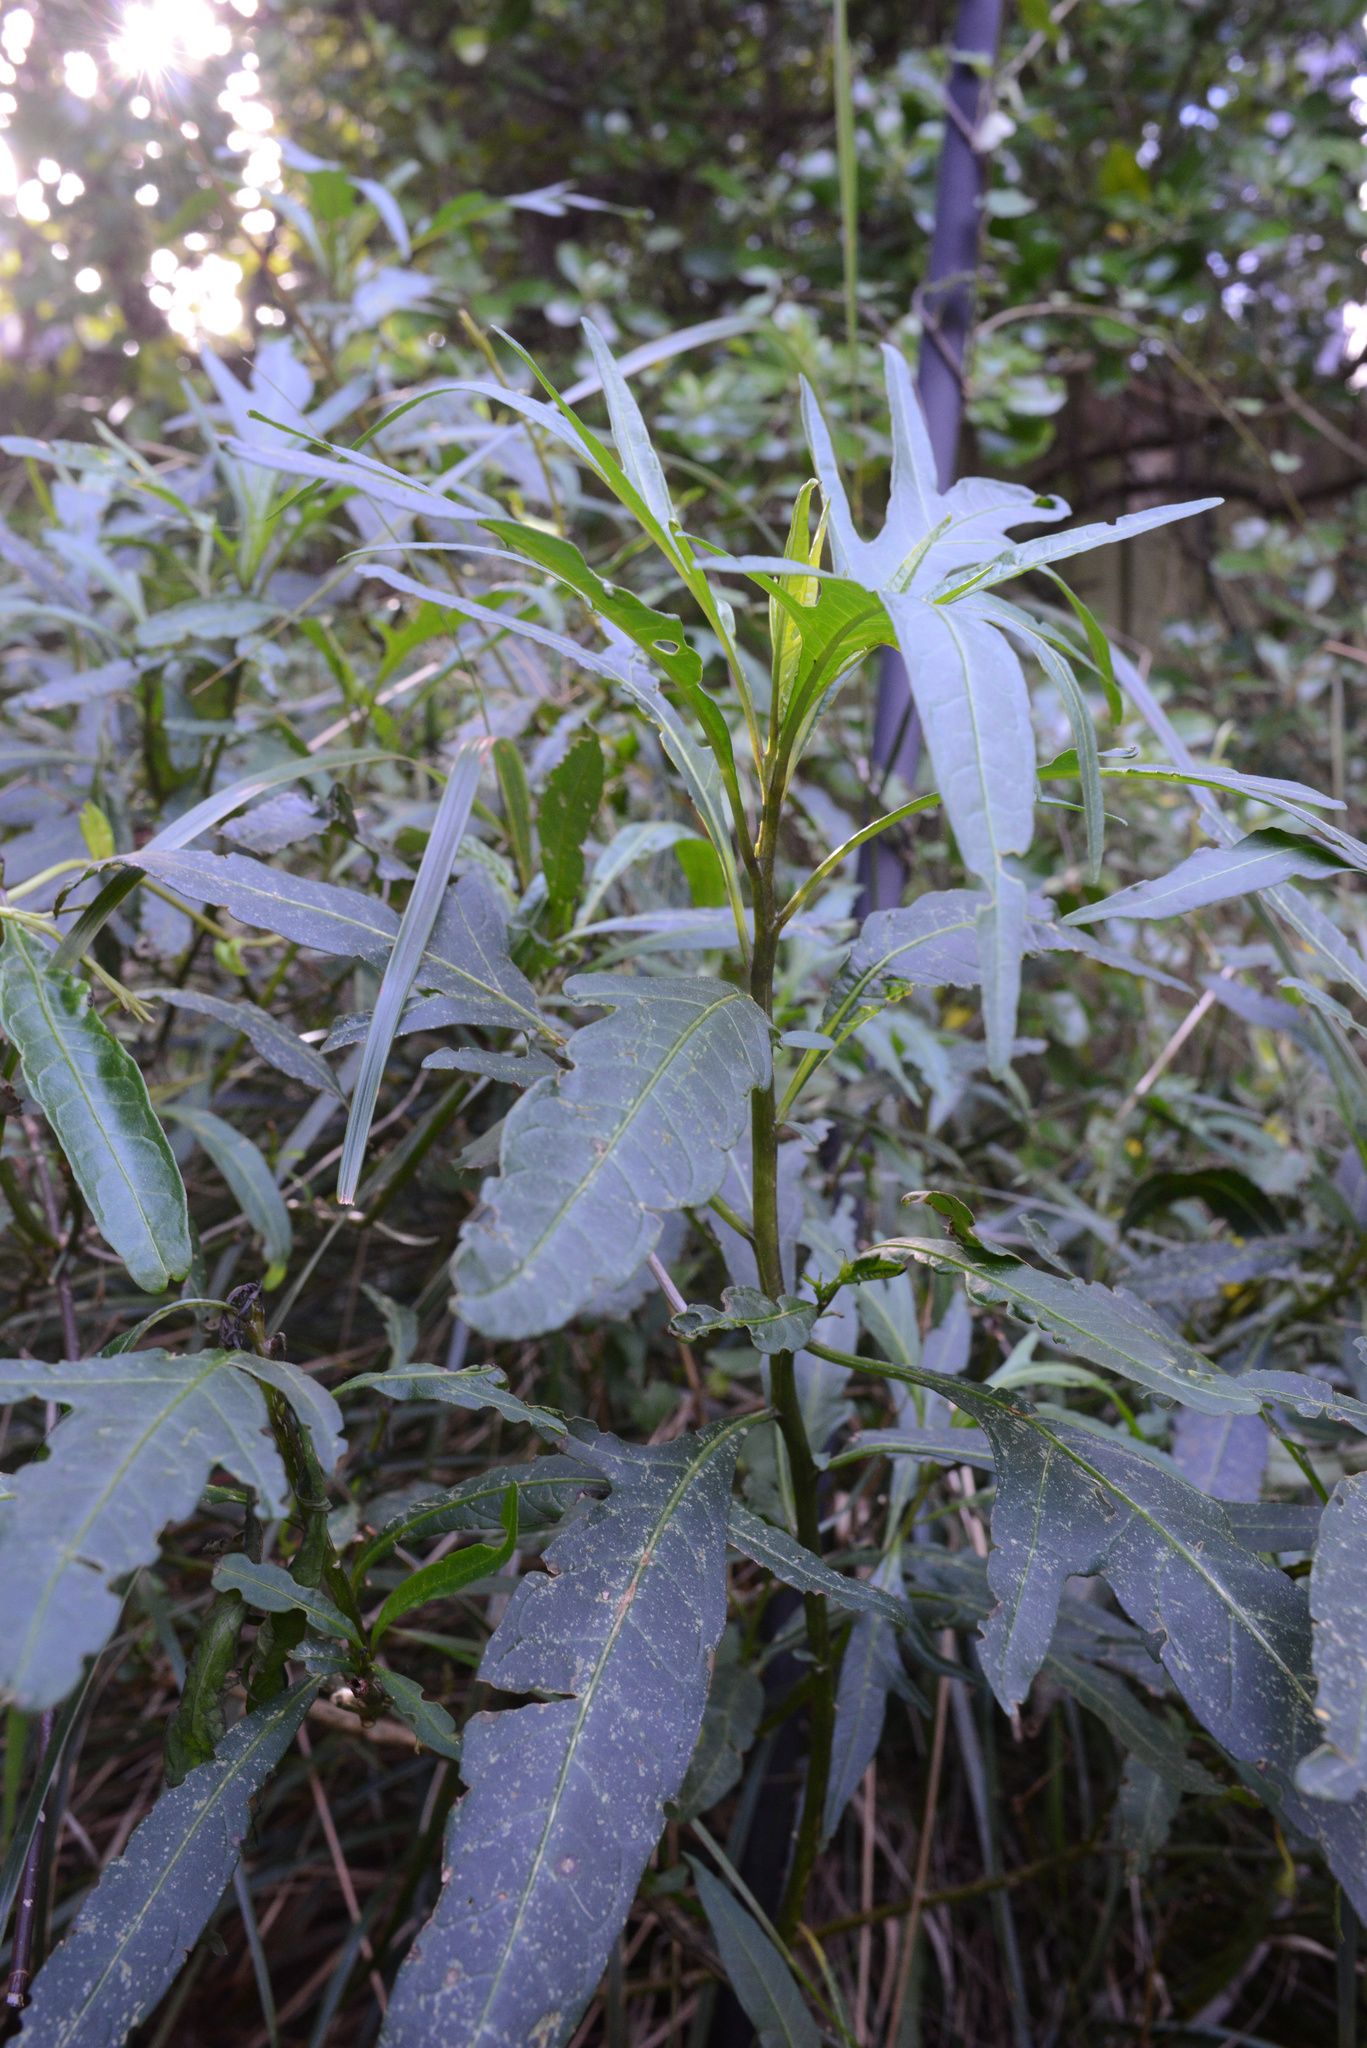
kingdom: Plantae
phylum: Tracheophyta
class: Magnoliopsida
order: Solanales
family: Solanaceae
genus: Solanum
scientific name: Solanum laciniatum
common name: Kangaroo-apple
